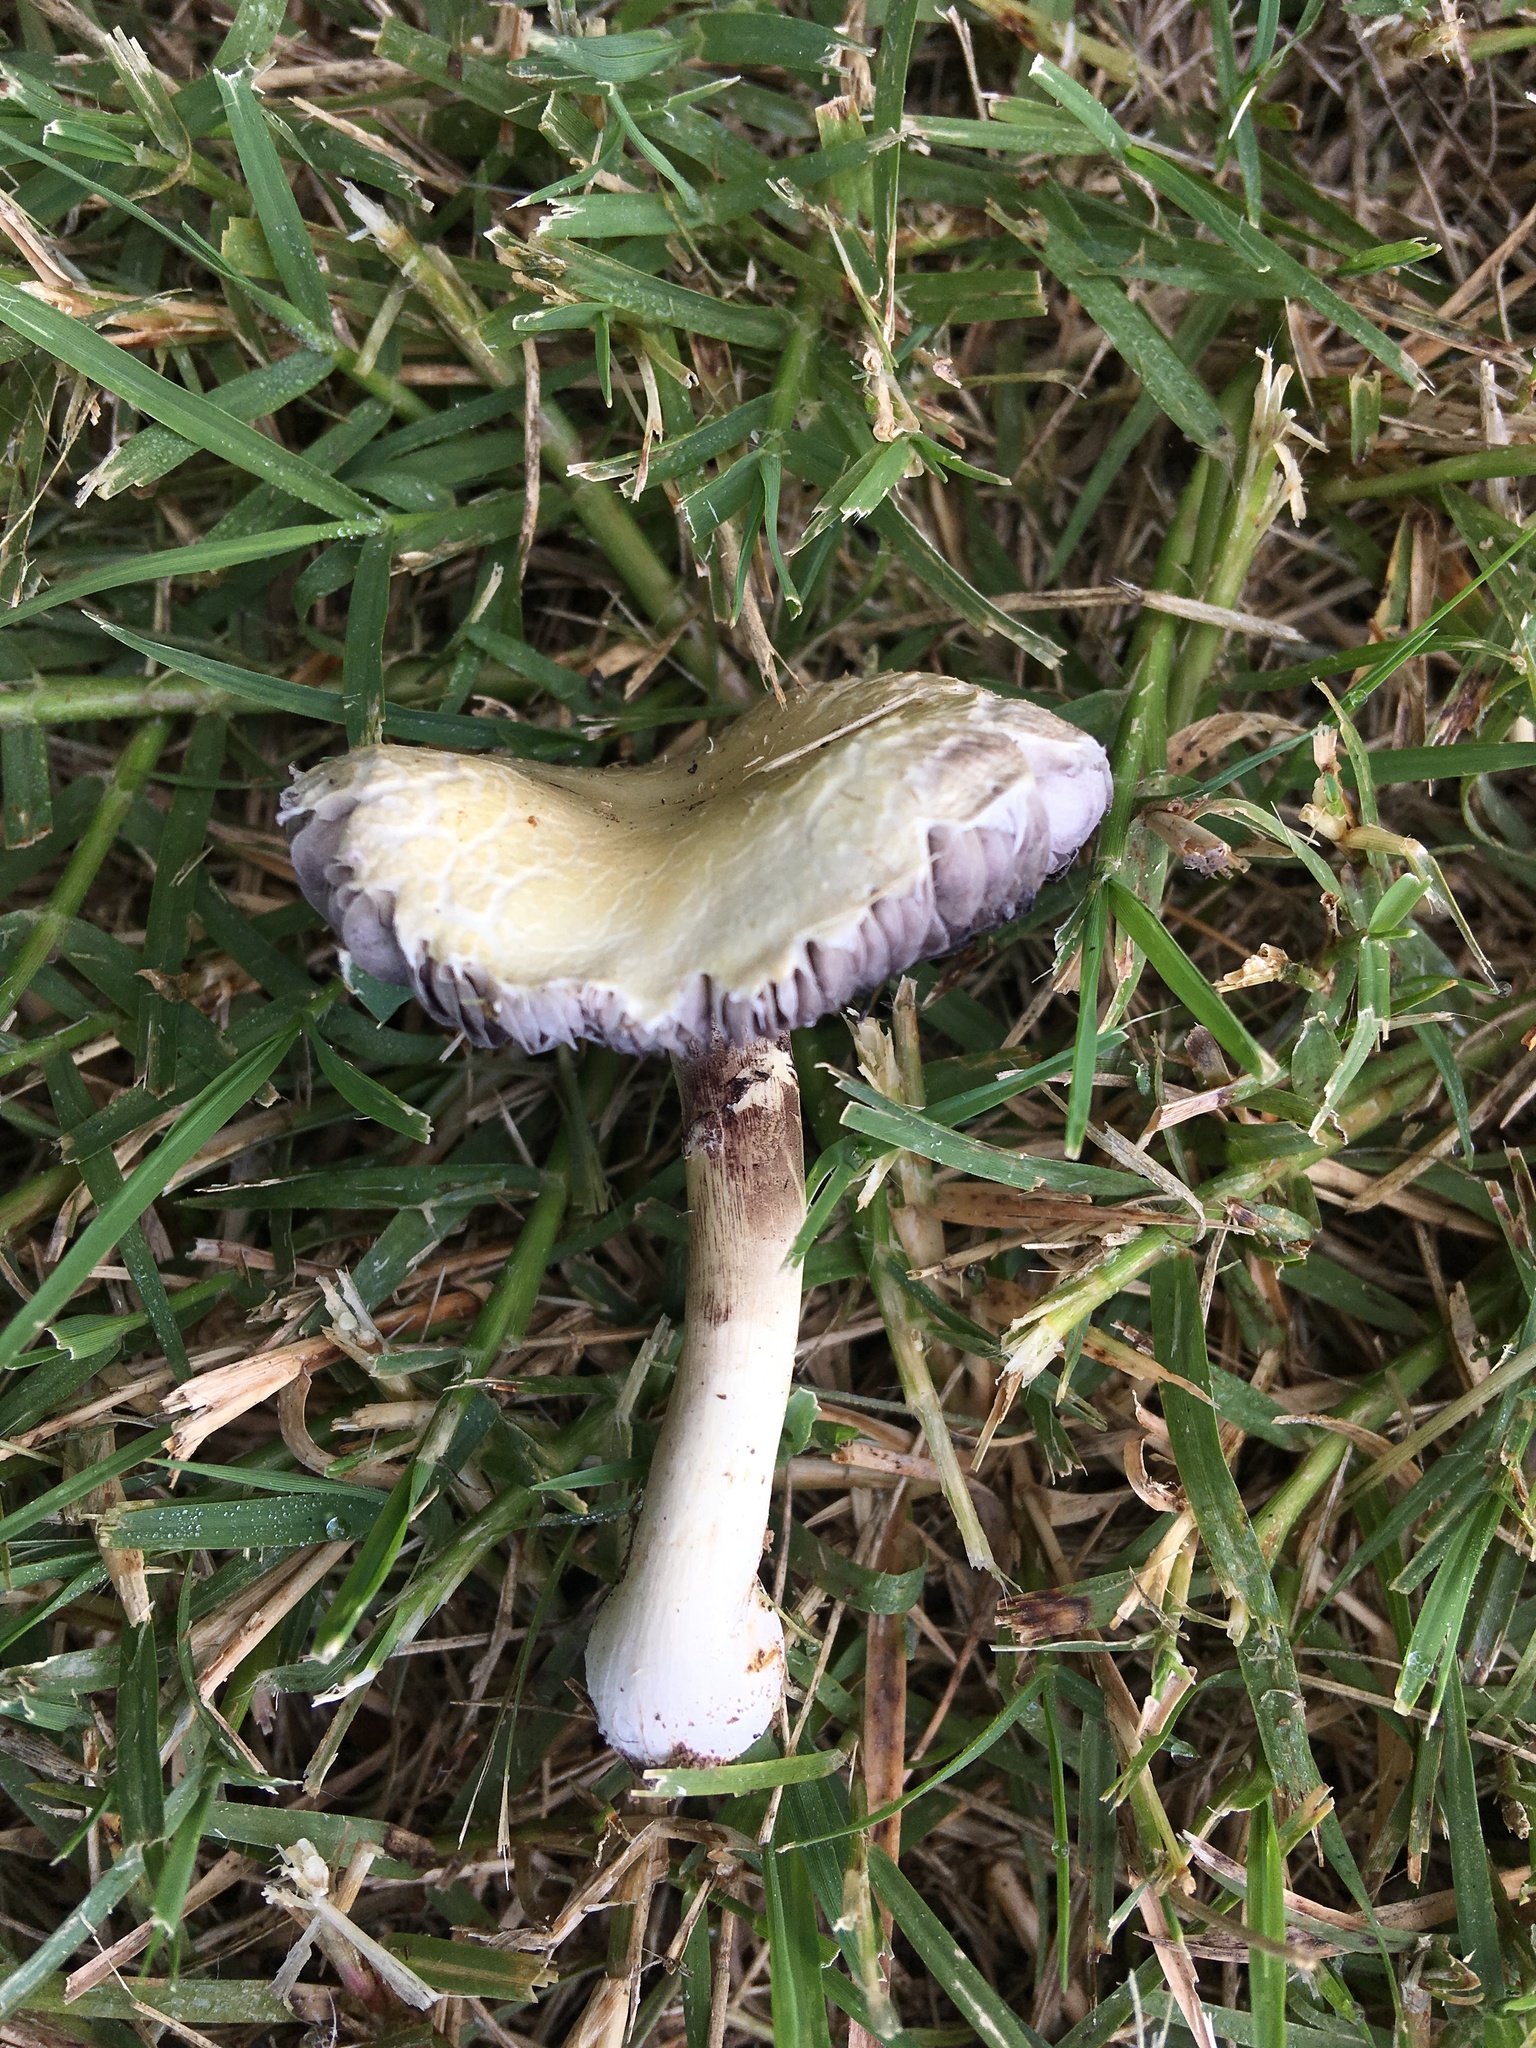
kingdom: Fungi
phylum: Basidiomycota
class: Agaricomycetes
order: Agaricales
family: Strophariaceae
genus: Stropharia
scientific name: Stropharia melanosperma
